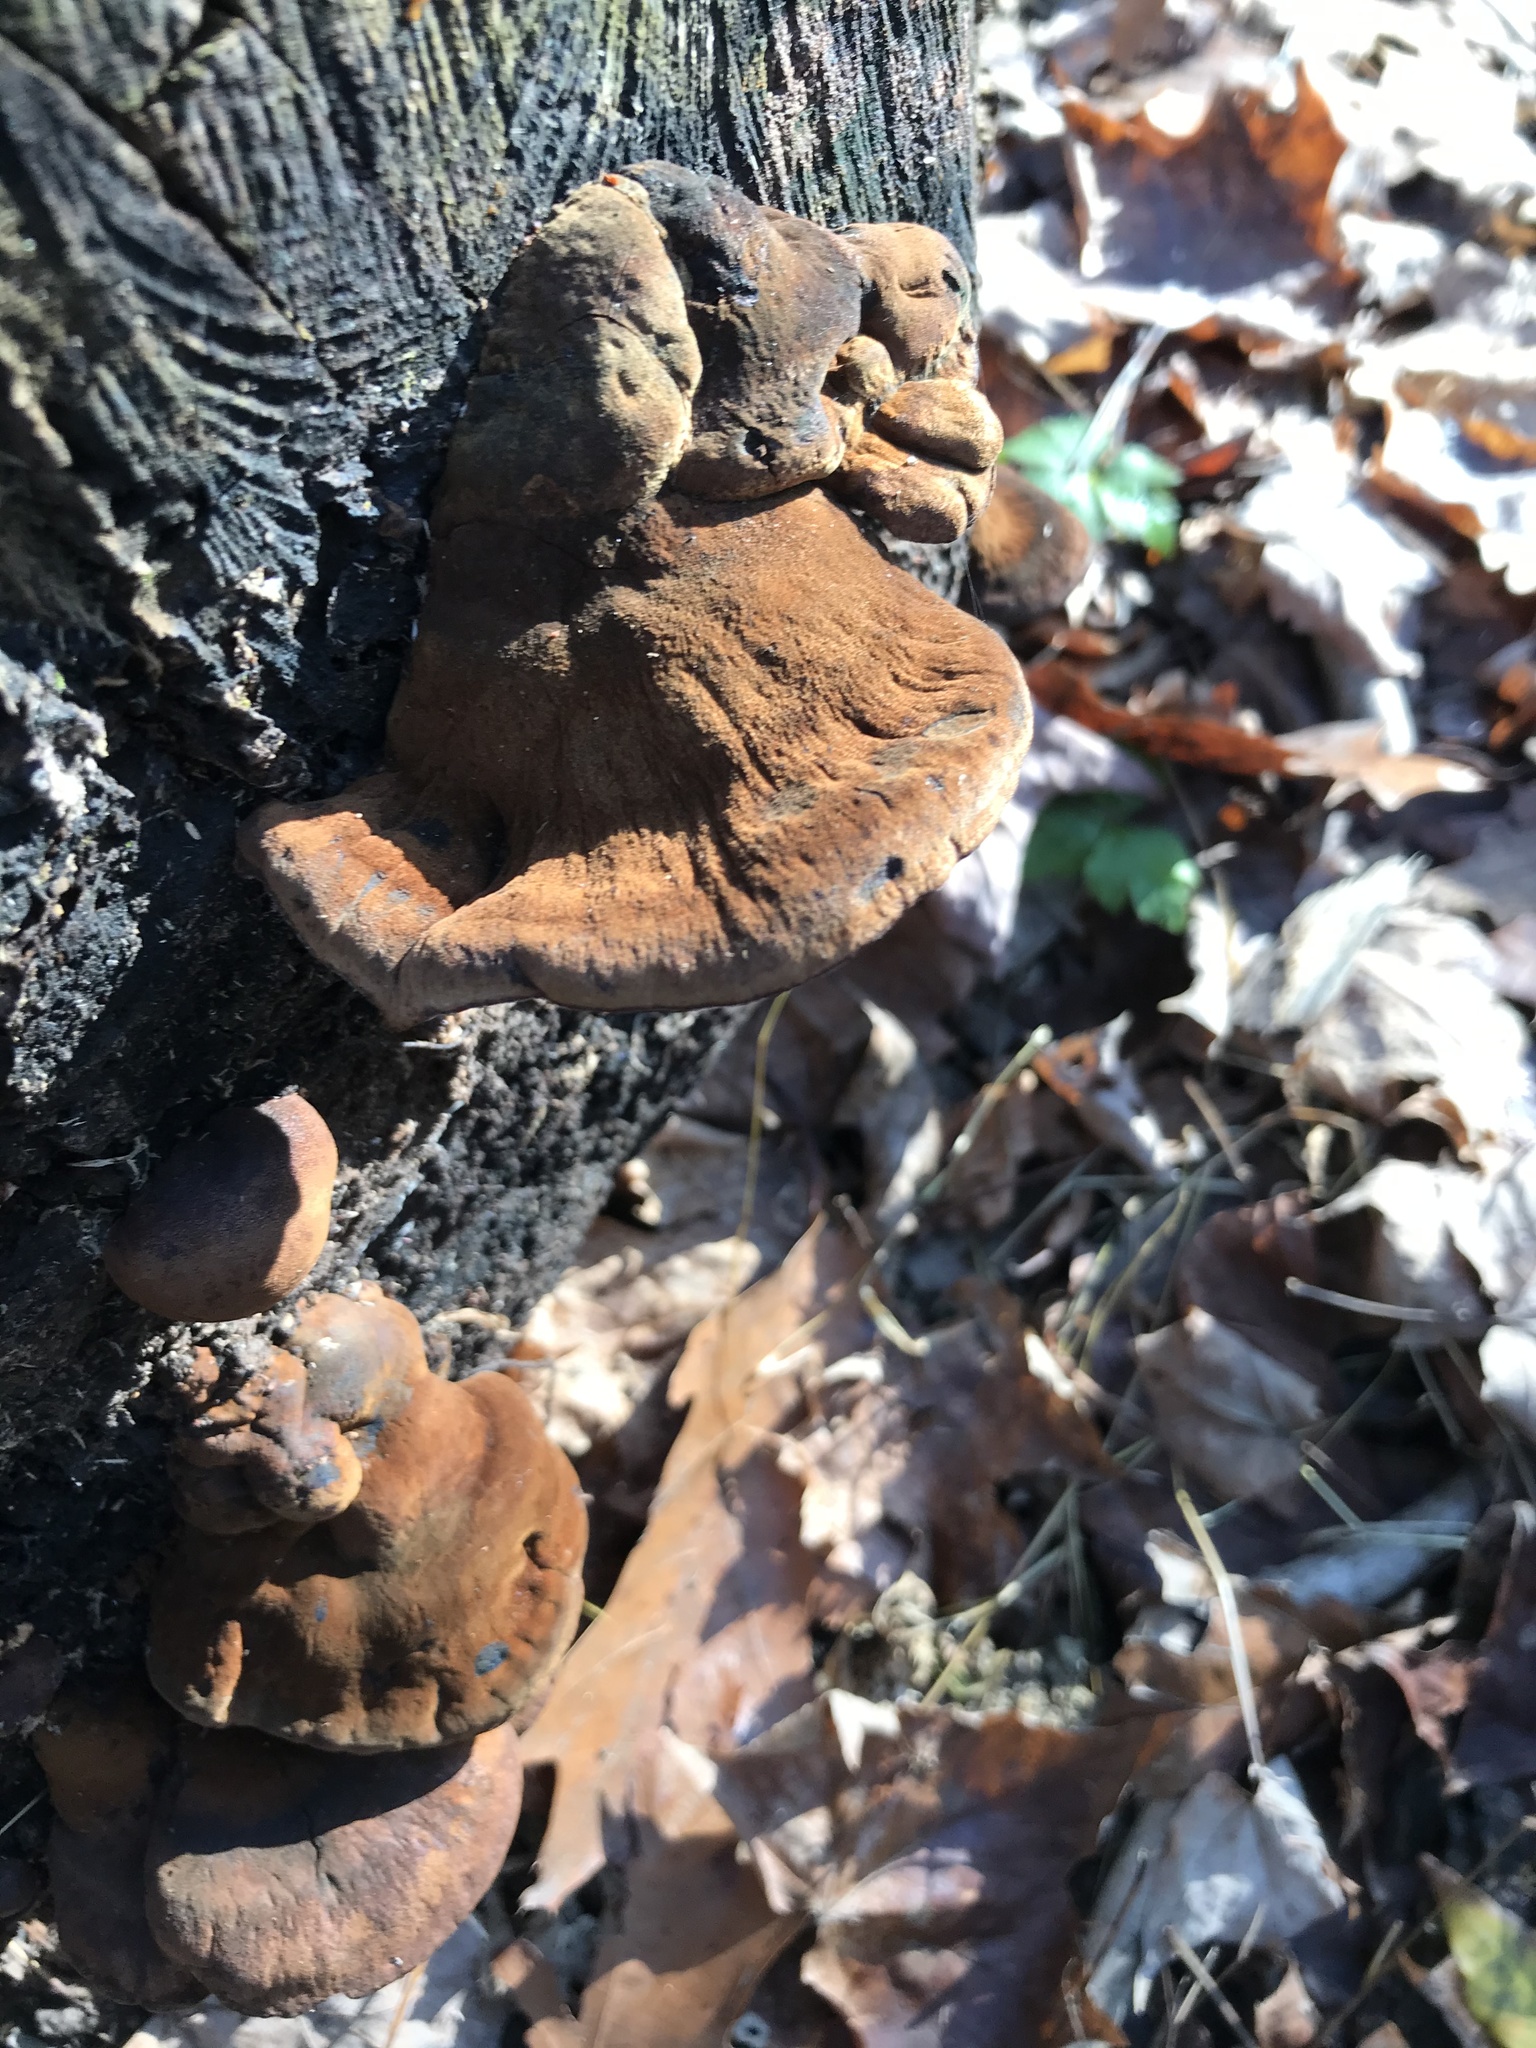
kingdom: Fungi
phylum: Basidiomycota
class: Agaricomycetes
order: Polyporales
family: Ischnodermataceae
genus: Ischnoderma
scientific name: Ischnoderma resinosum
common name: Resinous polypore
